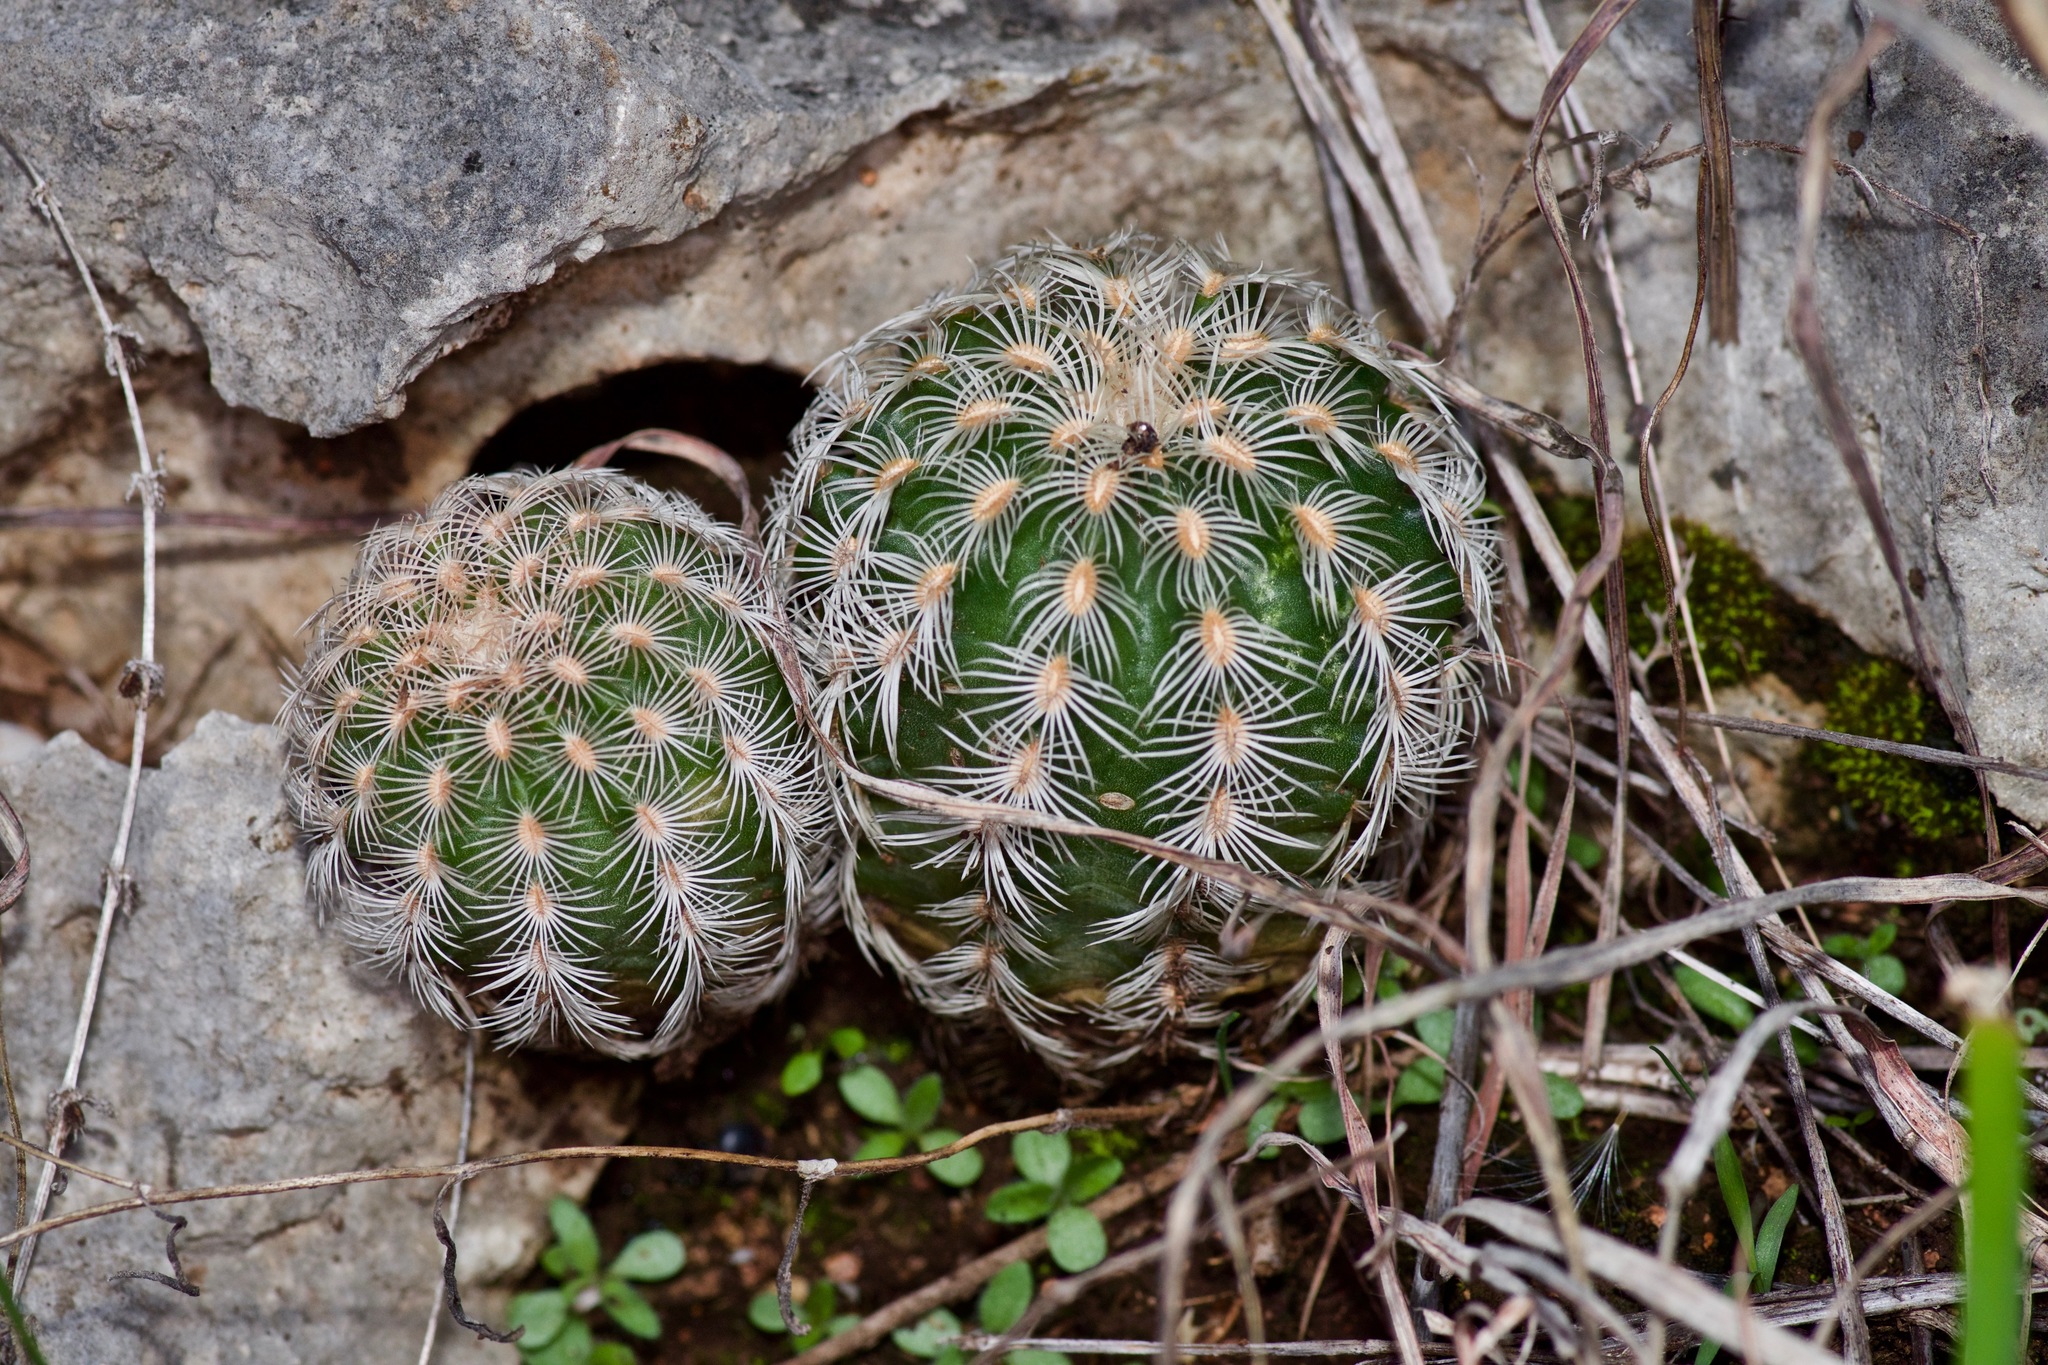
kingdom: Plantae
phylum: Tracheophyta
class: Magnoliopsida
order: Caryophyllales
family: Cactaceae
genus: Echinocereus
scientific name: Echinocereus reichenbachii
